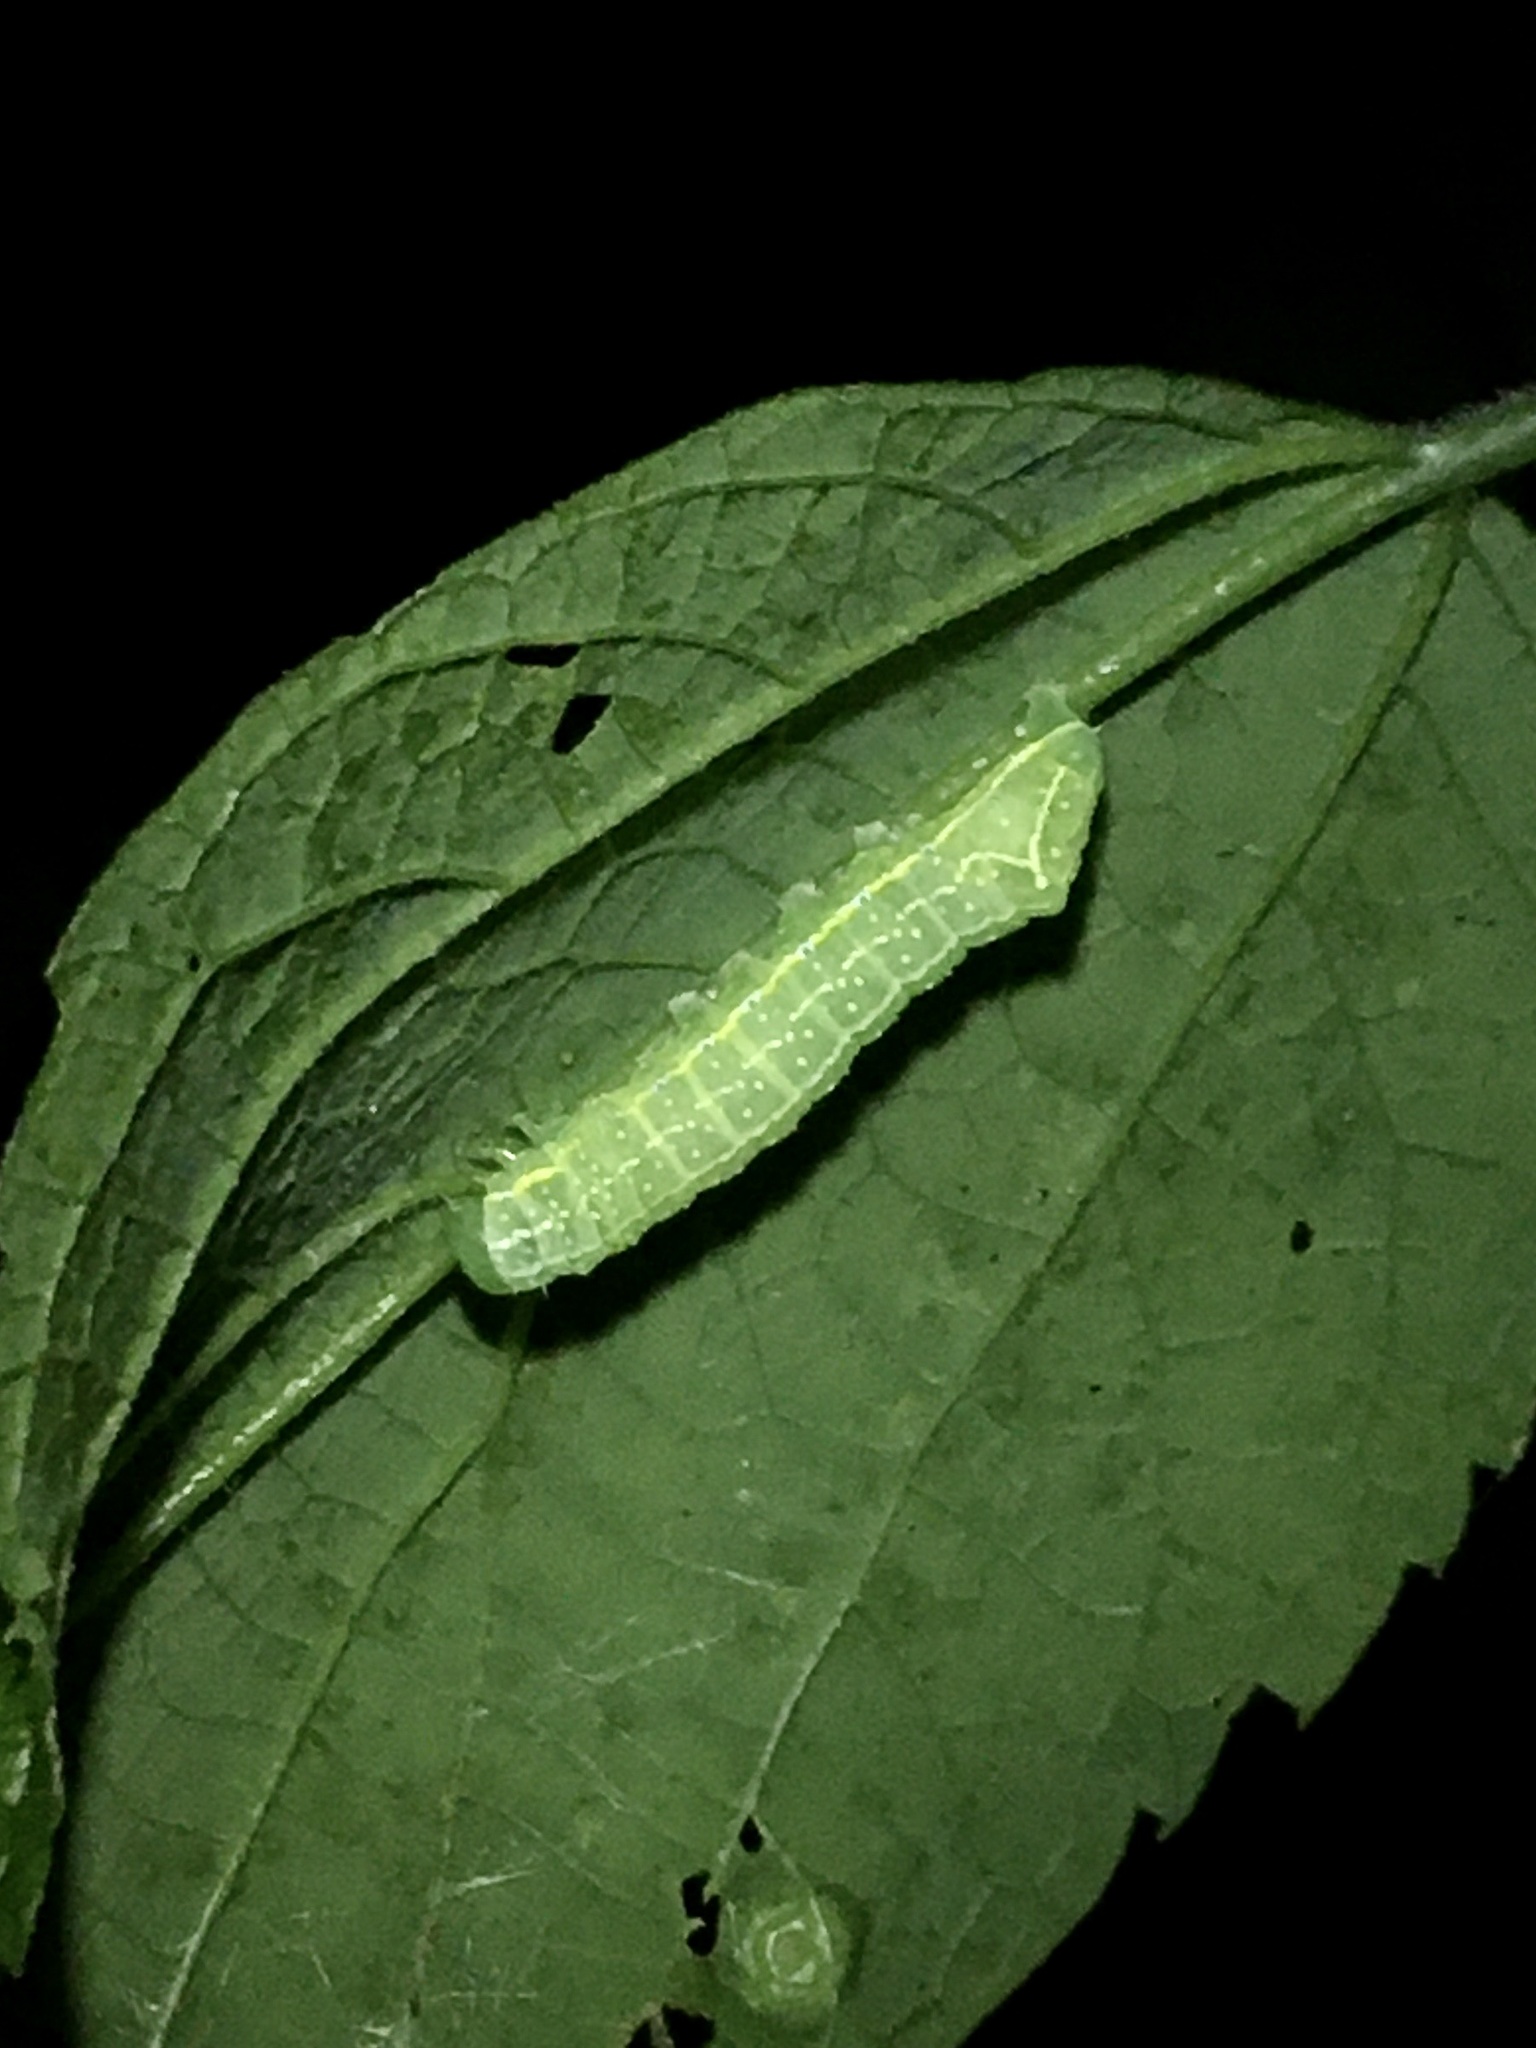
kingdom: Animalia
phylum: Arthropoda
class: Insecta
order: Lepidoptera
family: Noctuidae
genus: Amphipyra
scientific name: Amphipyra pyramidoides
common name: American copper underwing
